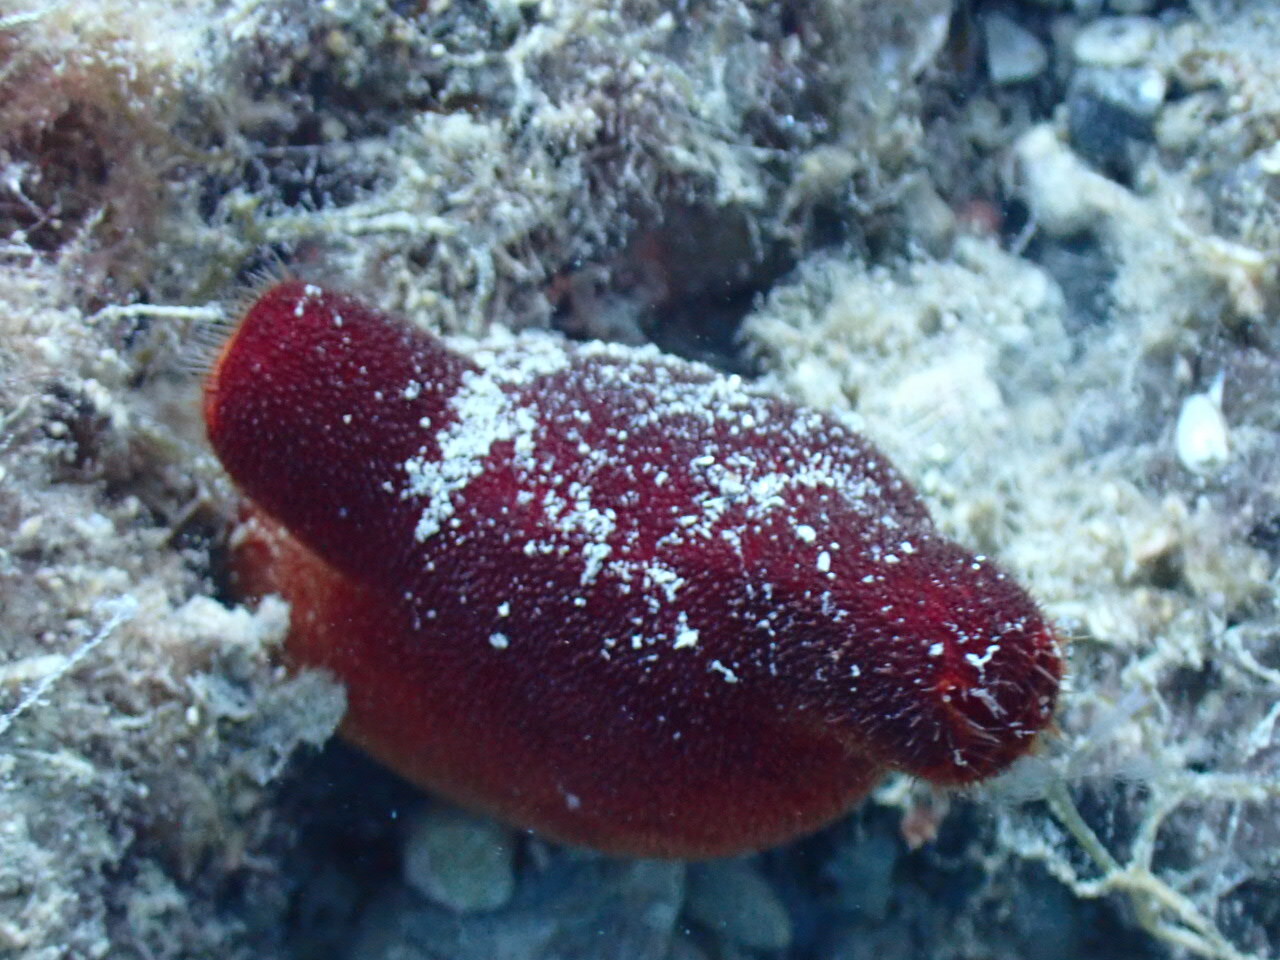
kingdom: Animalia
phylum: Chordata
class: Ascidiacea
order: Stolidobranchia
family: Pyuridae
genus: Halocynthia
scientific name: Halocynthia papillosa
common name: Red sea-squirt
